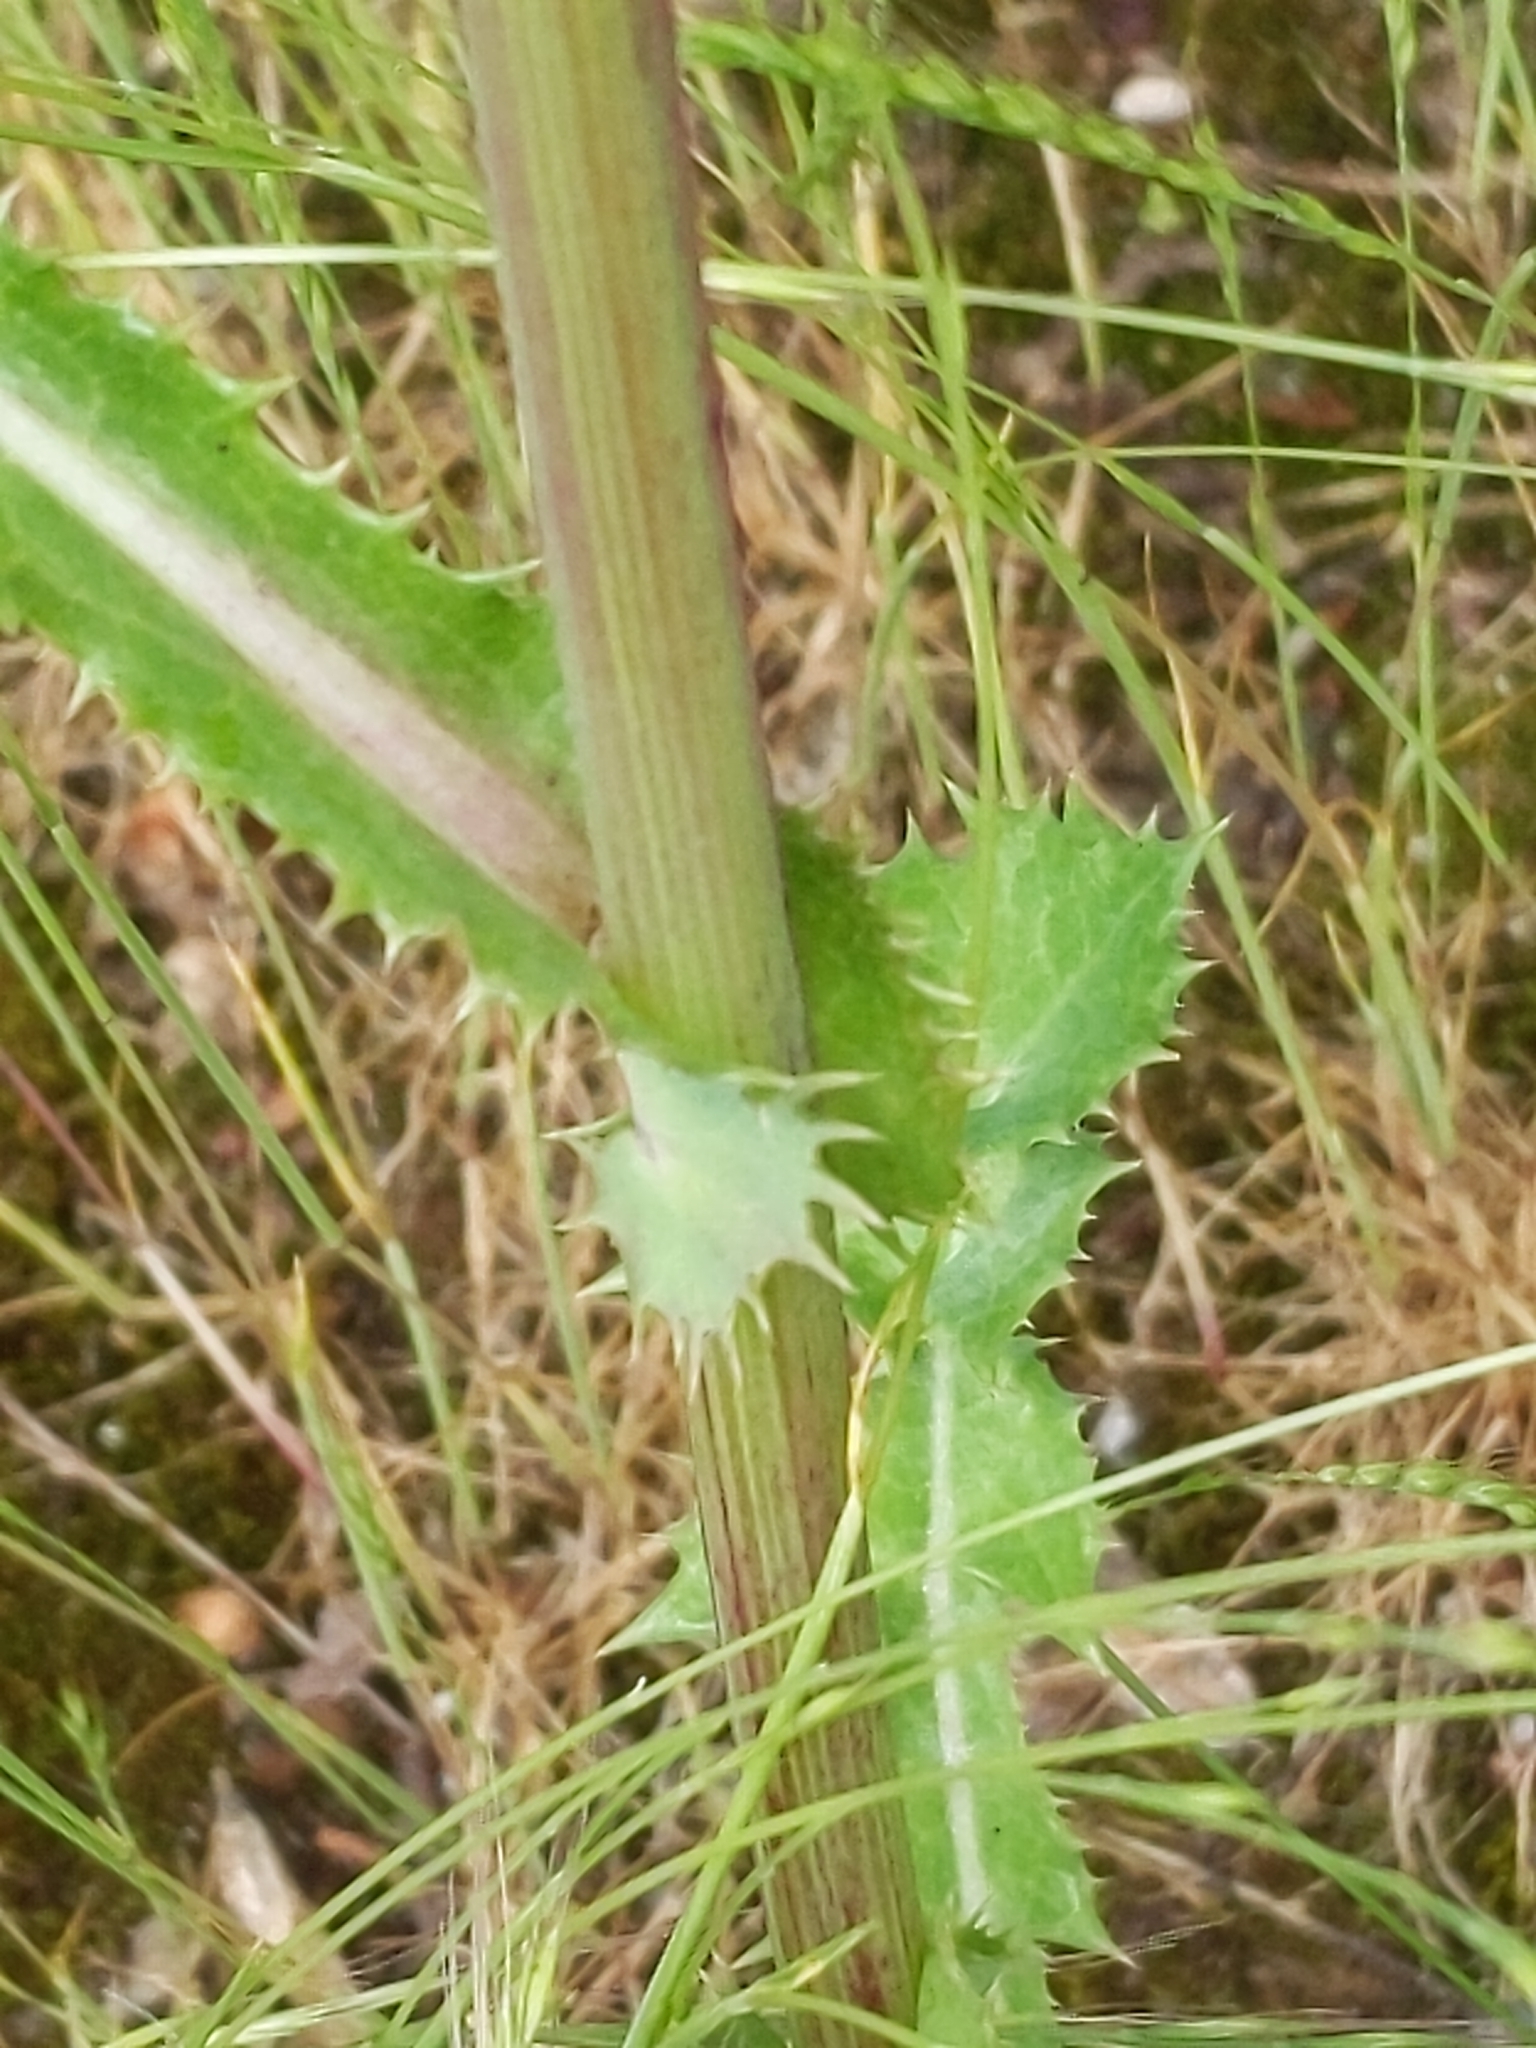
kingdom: Plantae
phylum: Tracheophyta
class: Magnoliopsida
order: Asterales
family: Asteraceae
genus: Sonchus
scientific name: Sonchus asper
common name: Prickly sow-thistle
